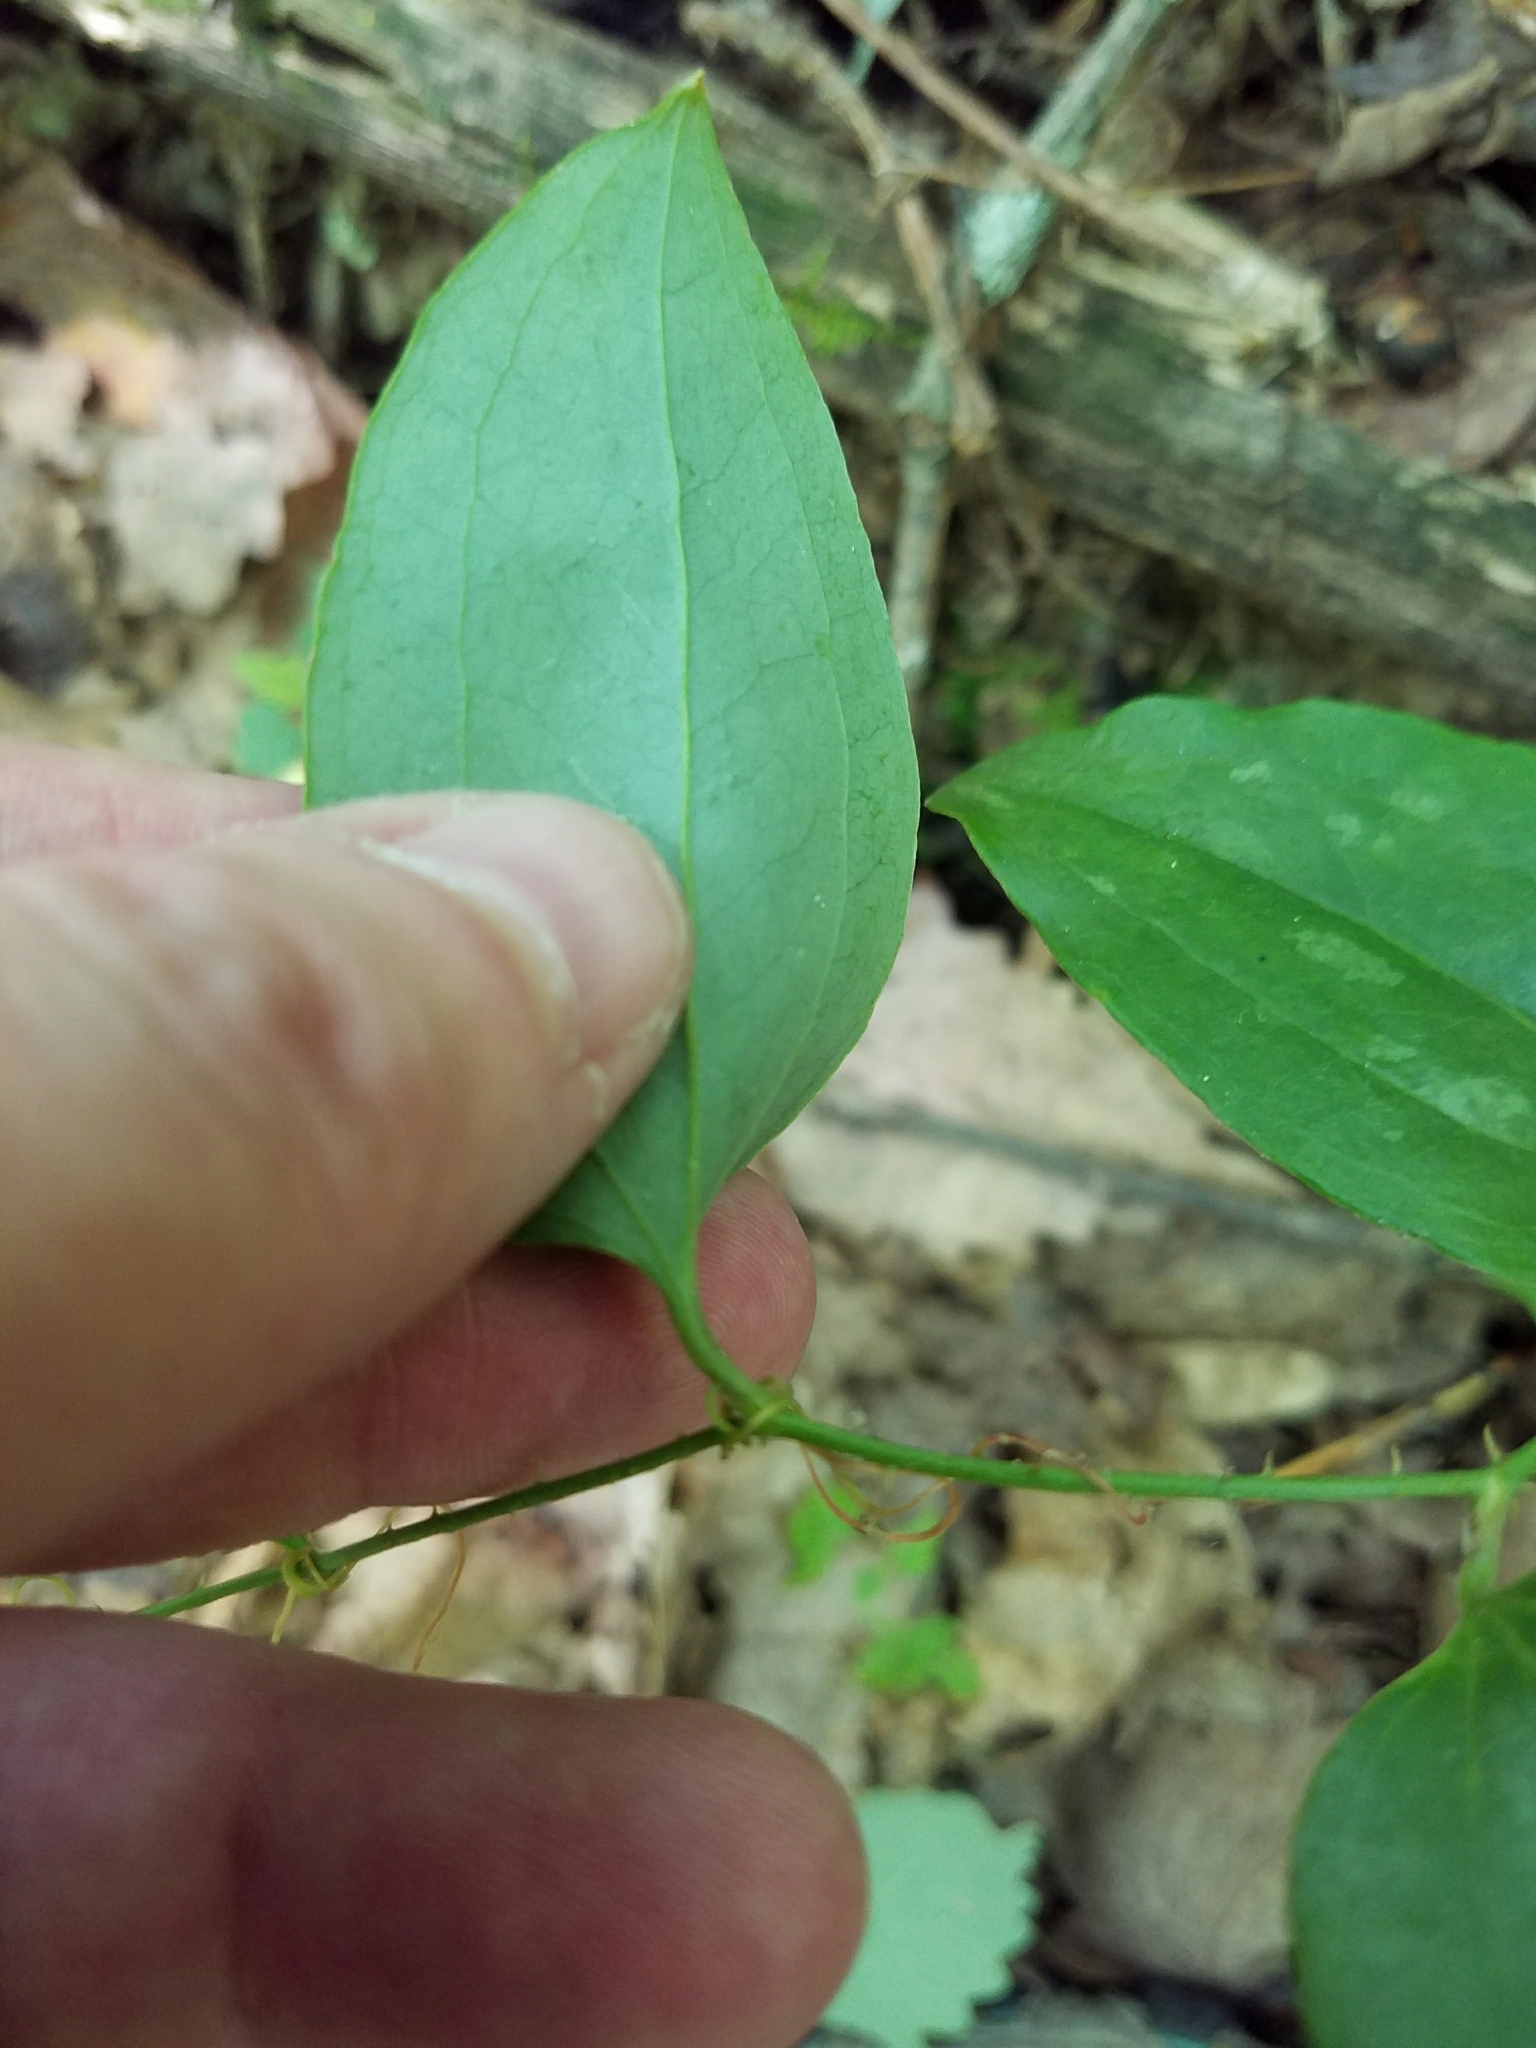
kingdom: Plantae
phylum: Tracheophyta
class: Liliopsida
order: Liliales
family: Smilacaceae
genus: Smilax
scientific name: Smilax glauca
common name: Cat greenbrier
